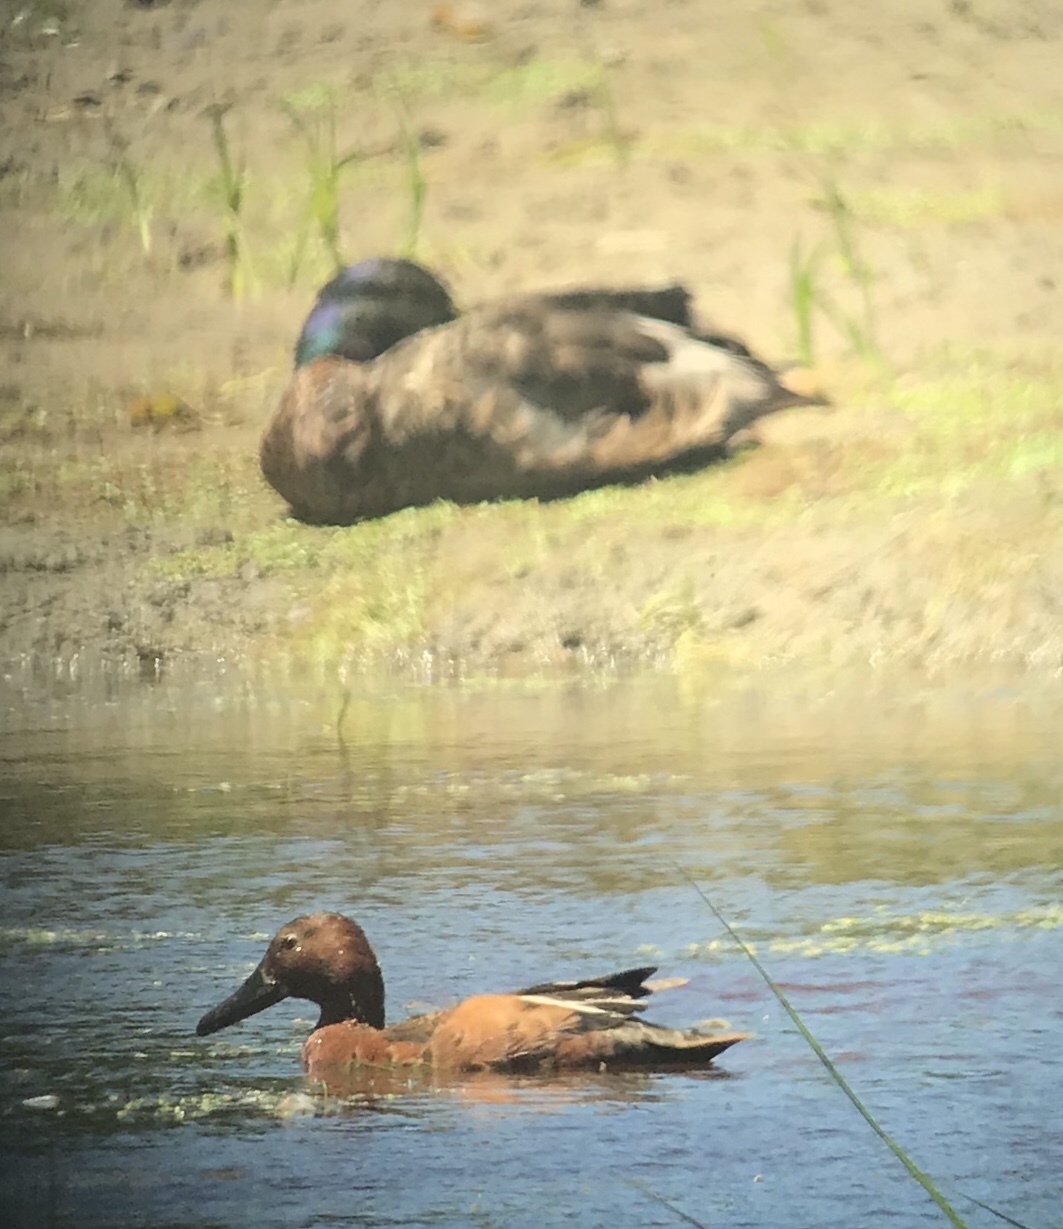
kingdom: Animalia
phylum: Chordata
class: Aves
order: Anseriformes
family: Anatidae
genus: Anas
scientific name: Anas platyrhynchos
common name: Mallard
